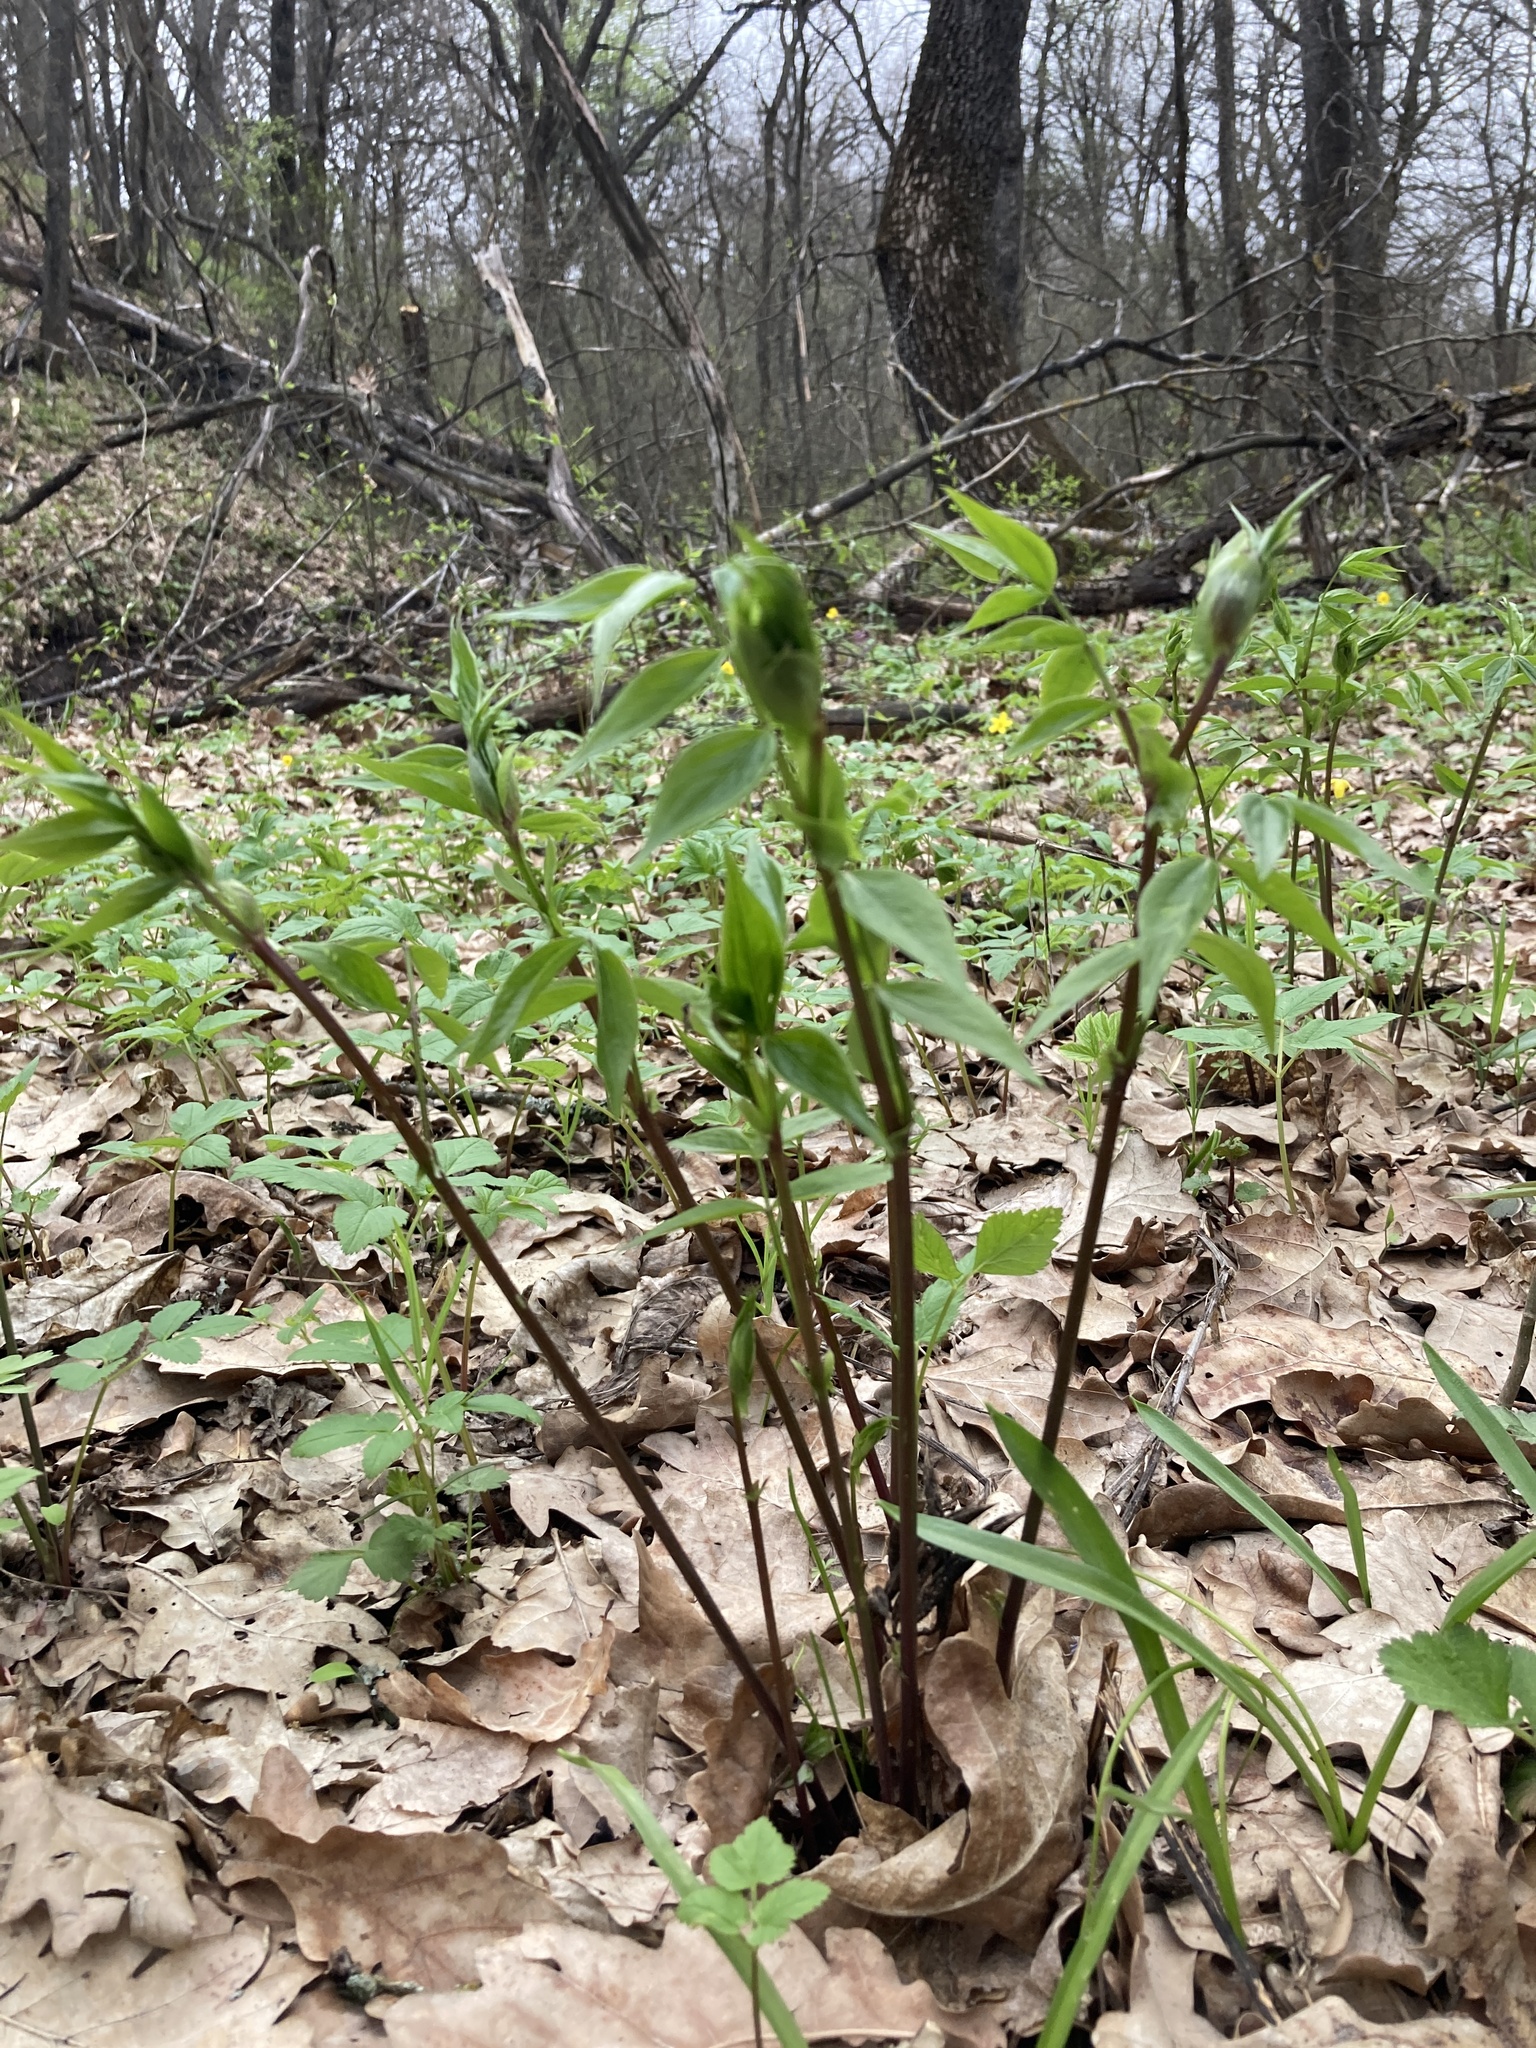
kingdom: Plantae
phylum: Tracheophyta
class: Magnoliopsida
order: Fabales
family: Fabaceae
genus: Lathyrus
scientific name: Lathyrus vernus
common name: Spring pea
